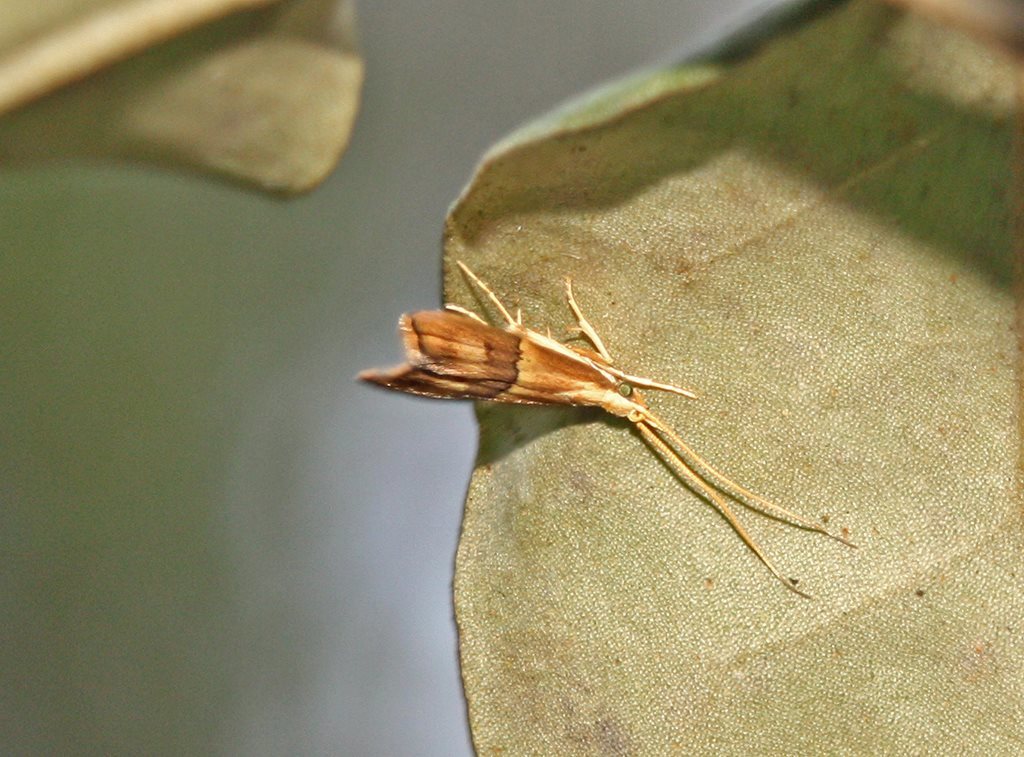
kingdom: Animalia
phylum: Arthropoda
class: Insecta
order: Lepidoptera
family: Lecithoceridae
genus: Crocanthes
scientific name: Crocanthes prasinopis
